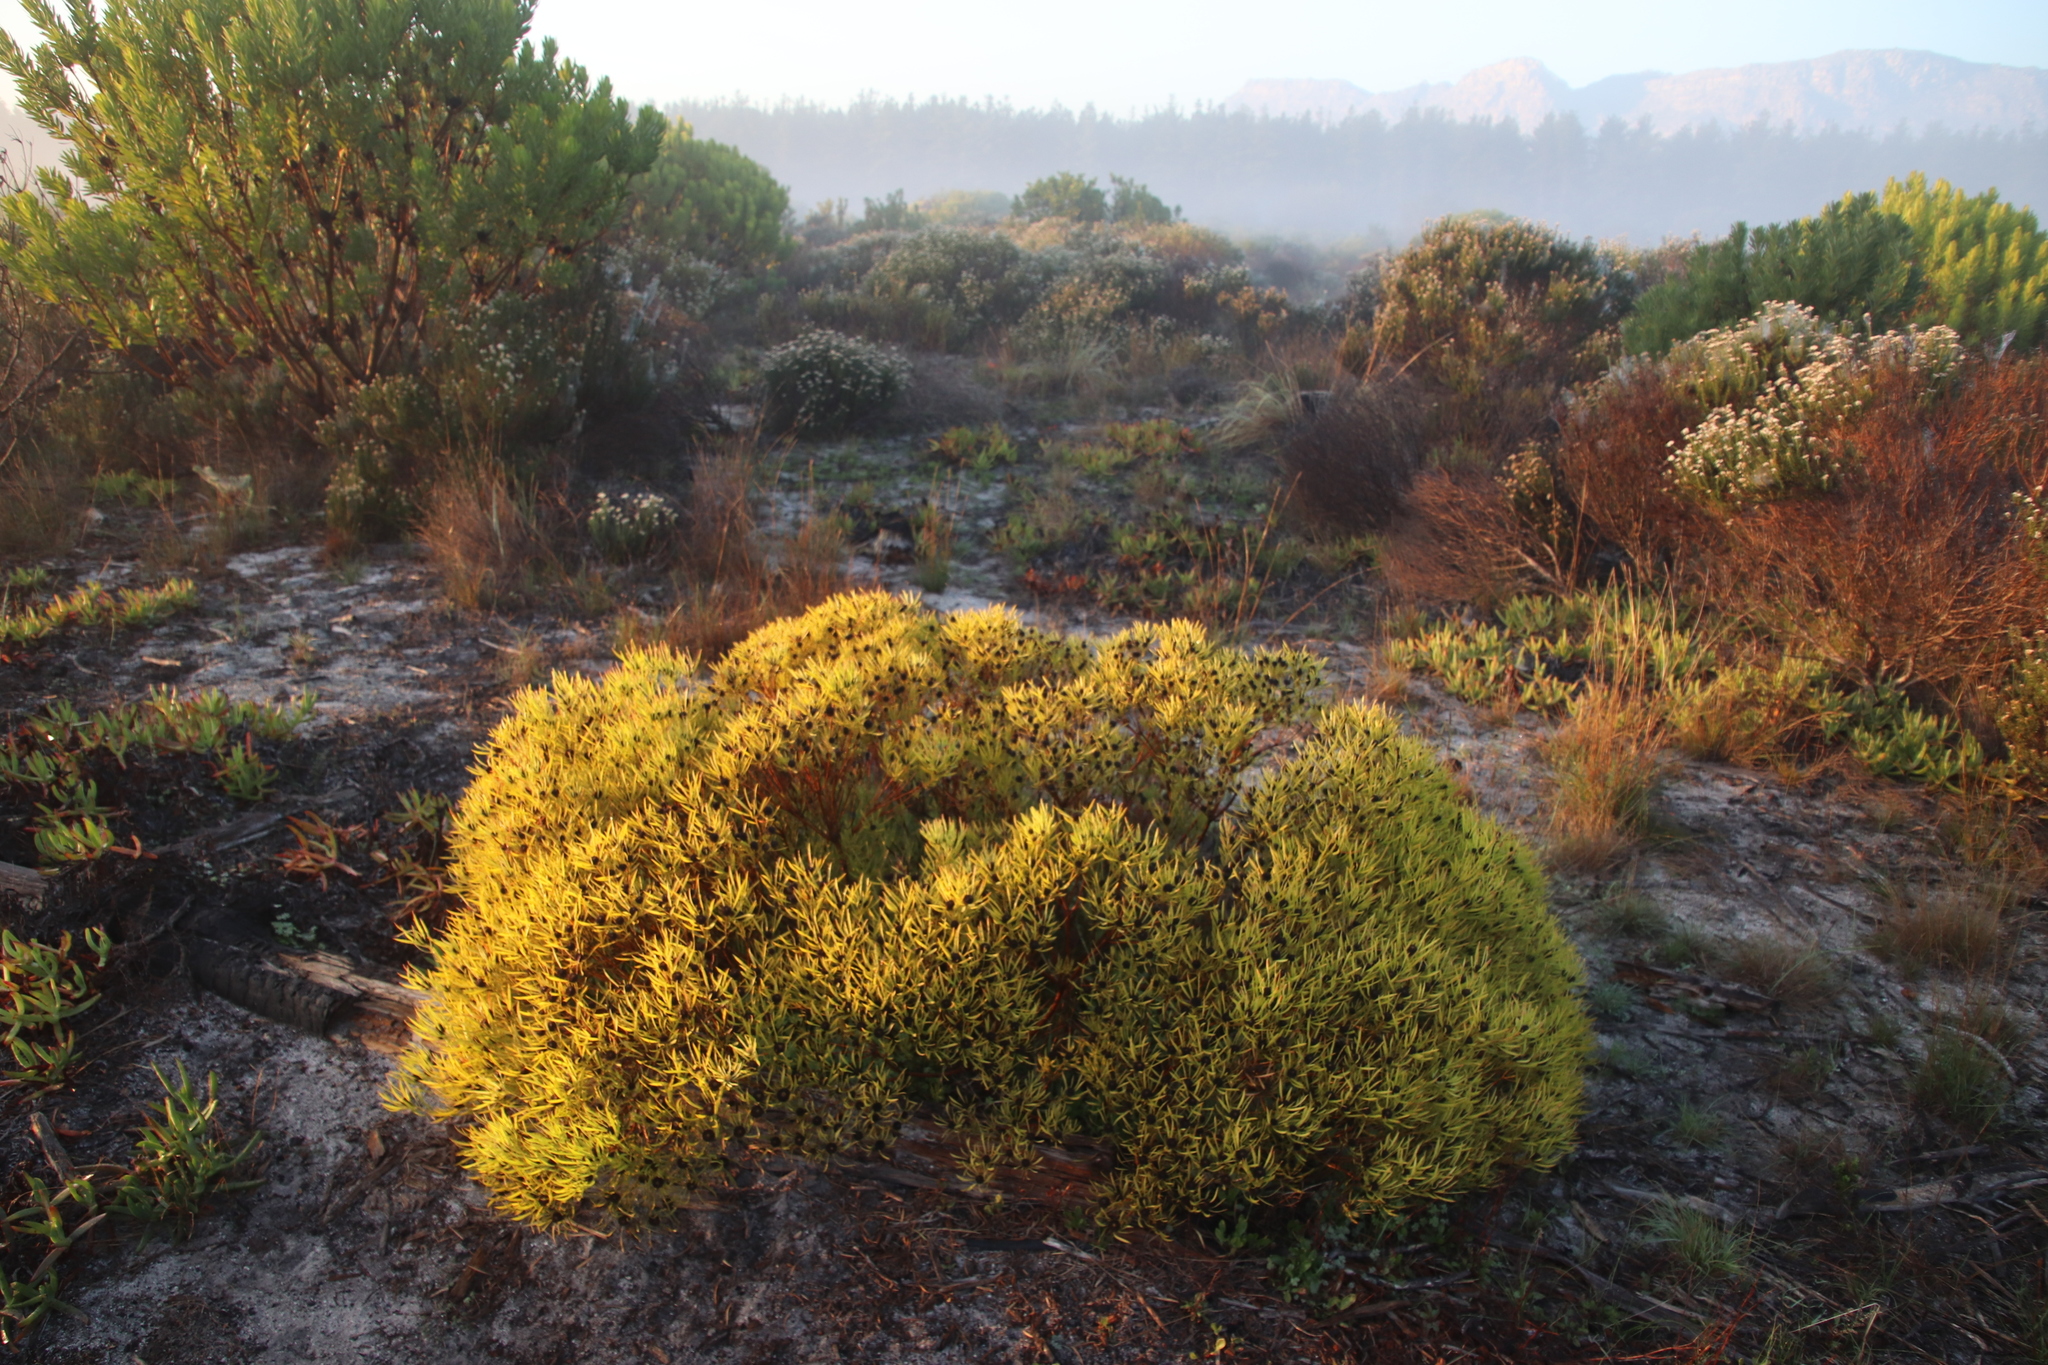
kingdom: Plantae
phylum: Tracheophyta
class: Magnoliopsida
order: Proteales
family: Proteaceae
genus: Leucadendron
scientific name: Leucadendron salignum
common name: Common sunshine conebush
